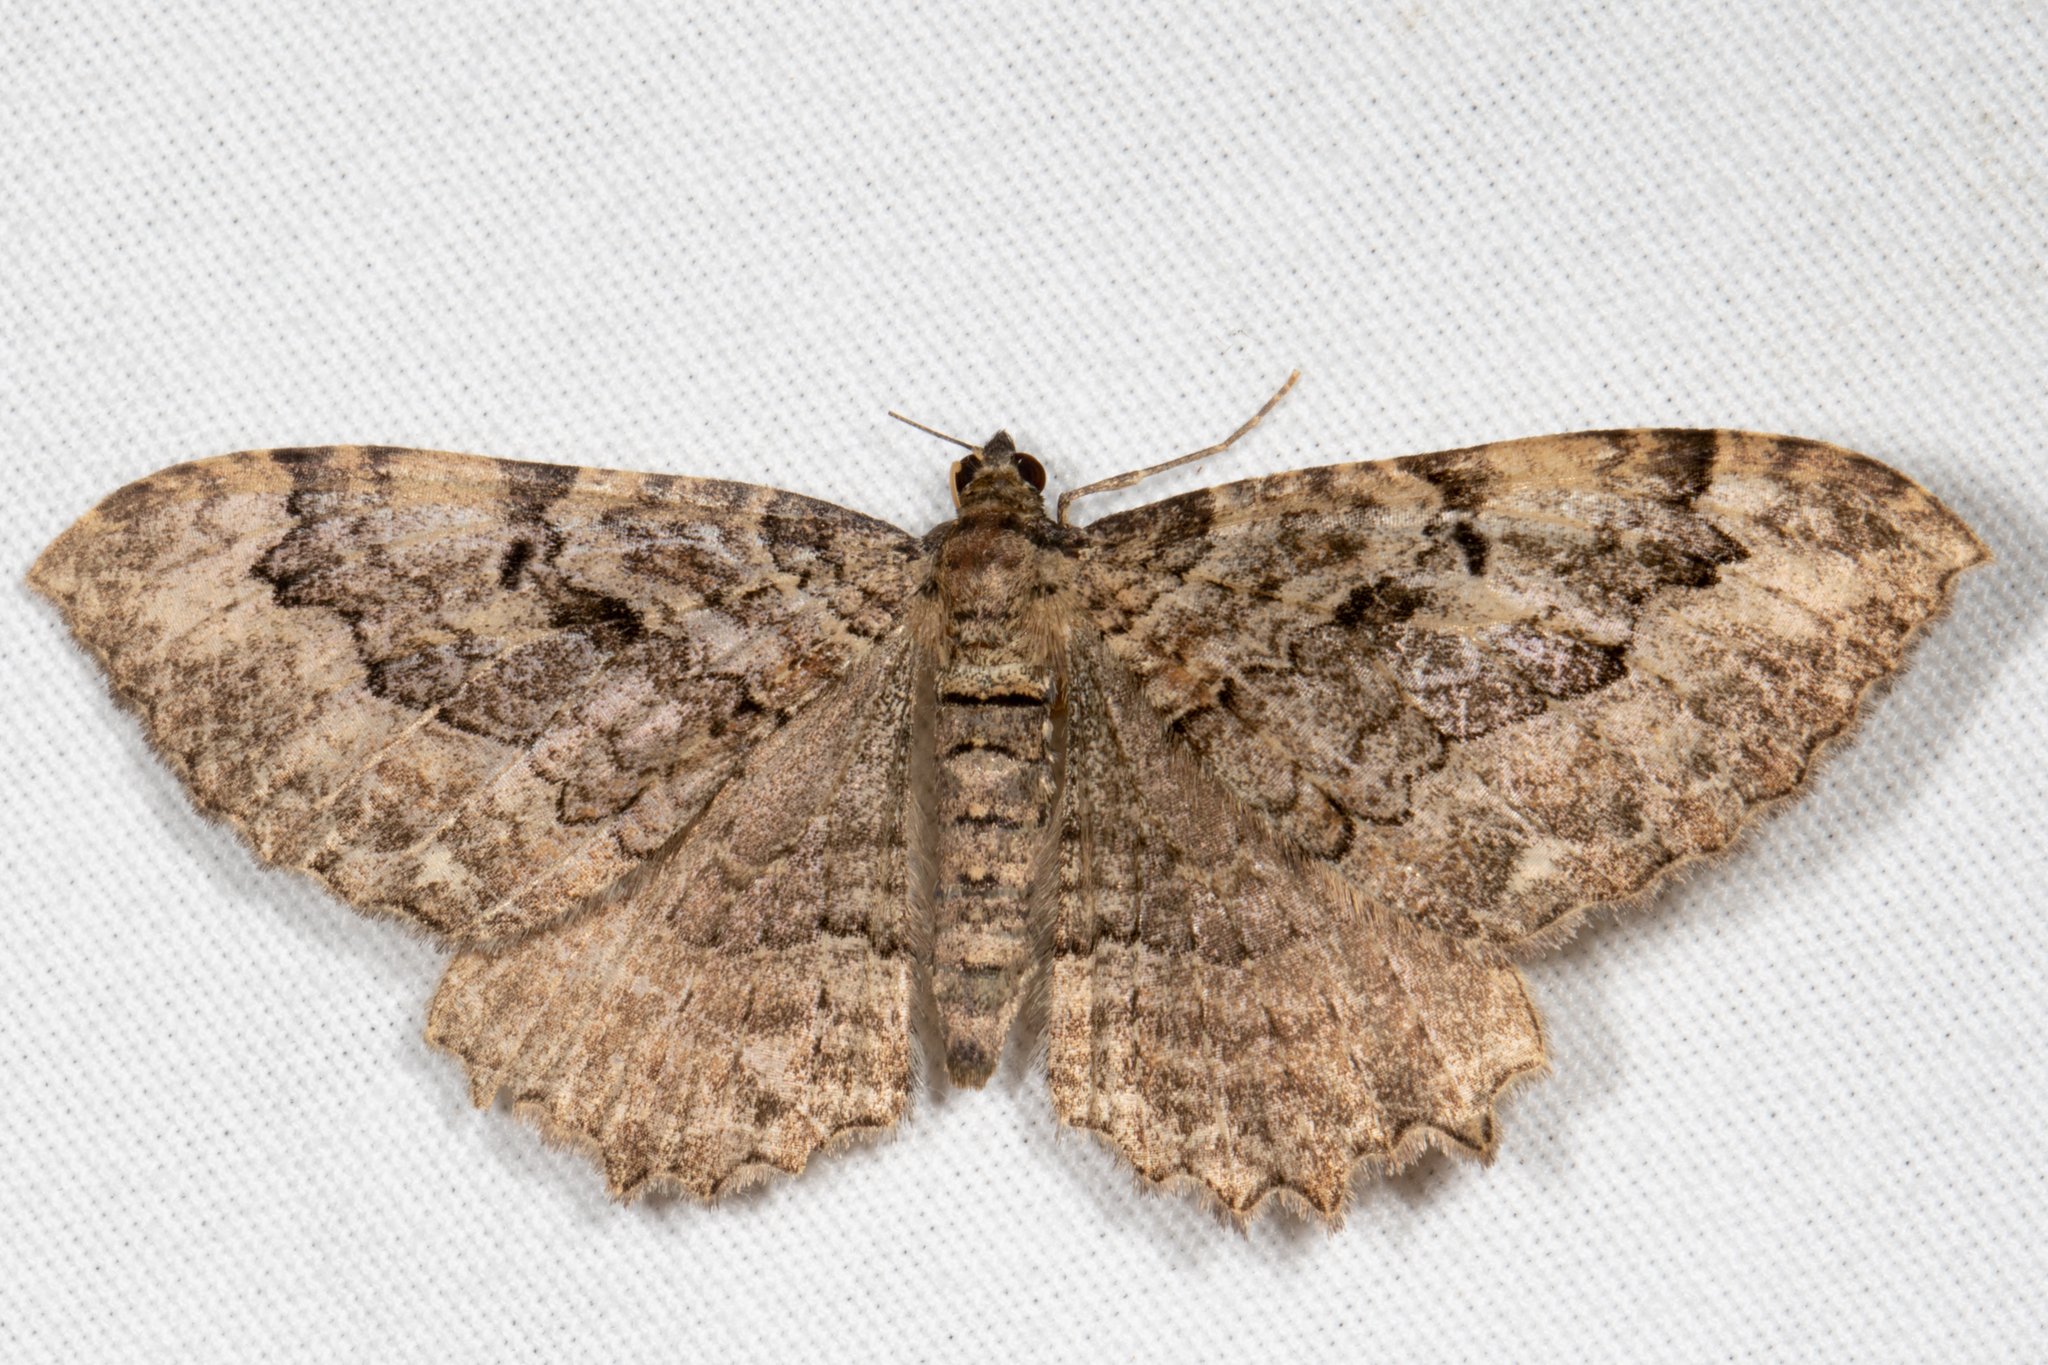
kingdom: Animalia
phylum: Arthropoda
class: Insecta
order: Lepidoptera
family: Geometridae
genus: Rheumaptera
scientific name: Rheumaptera
